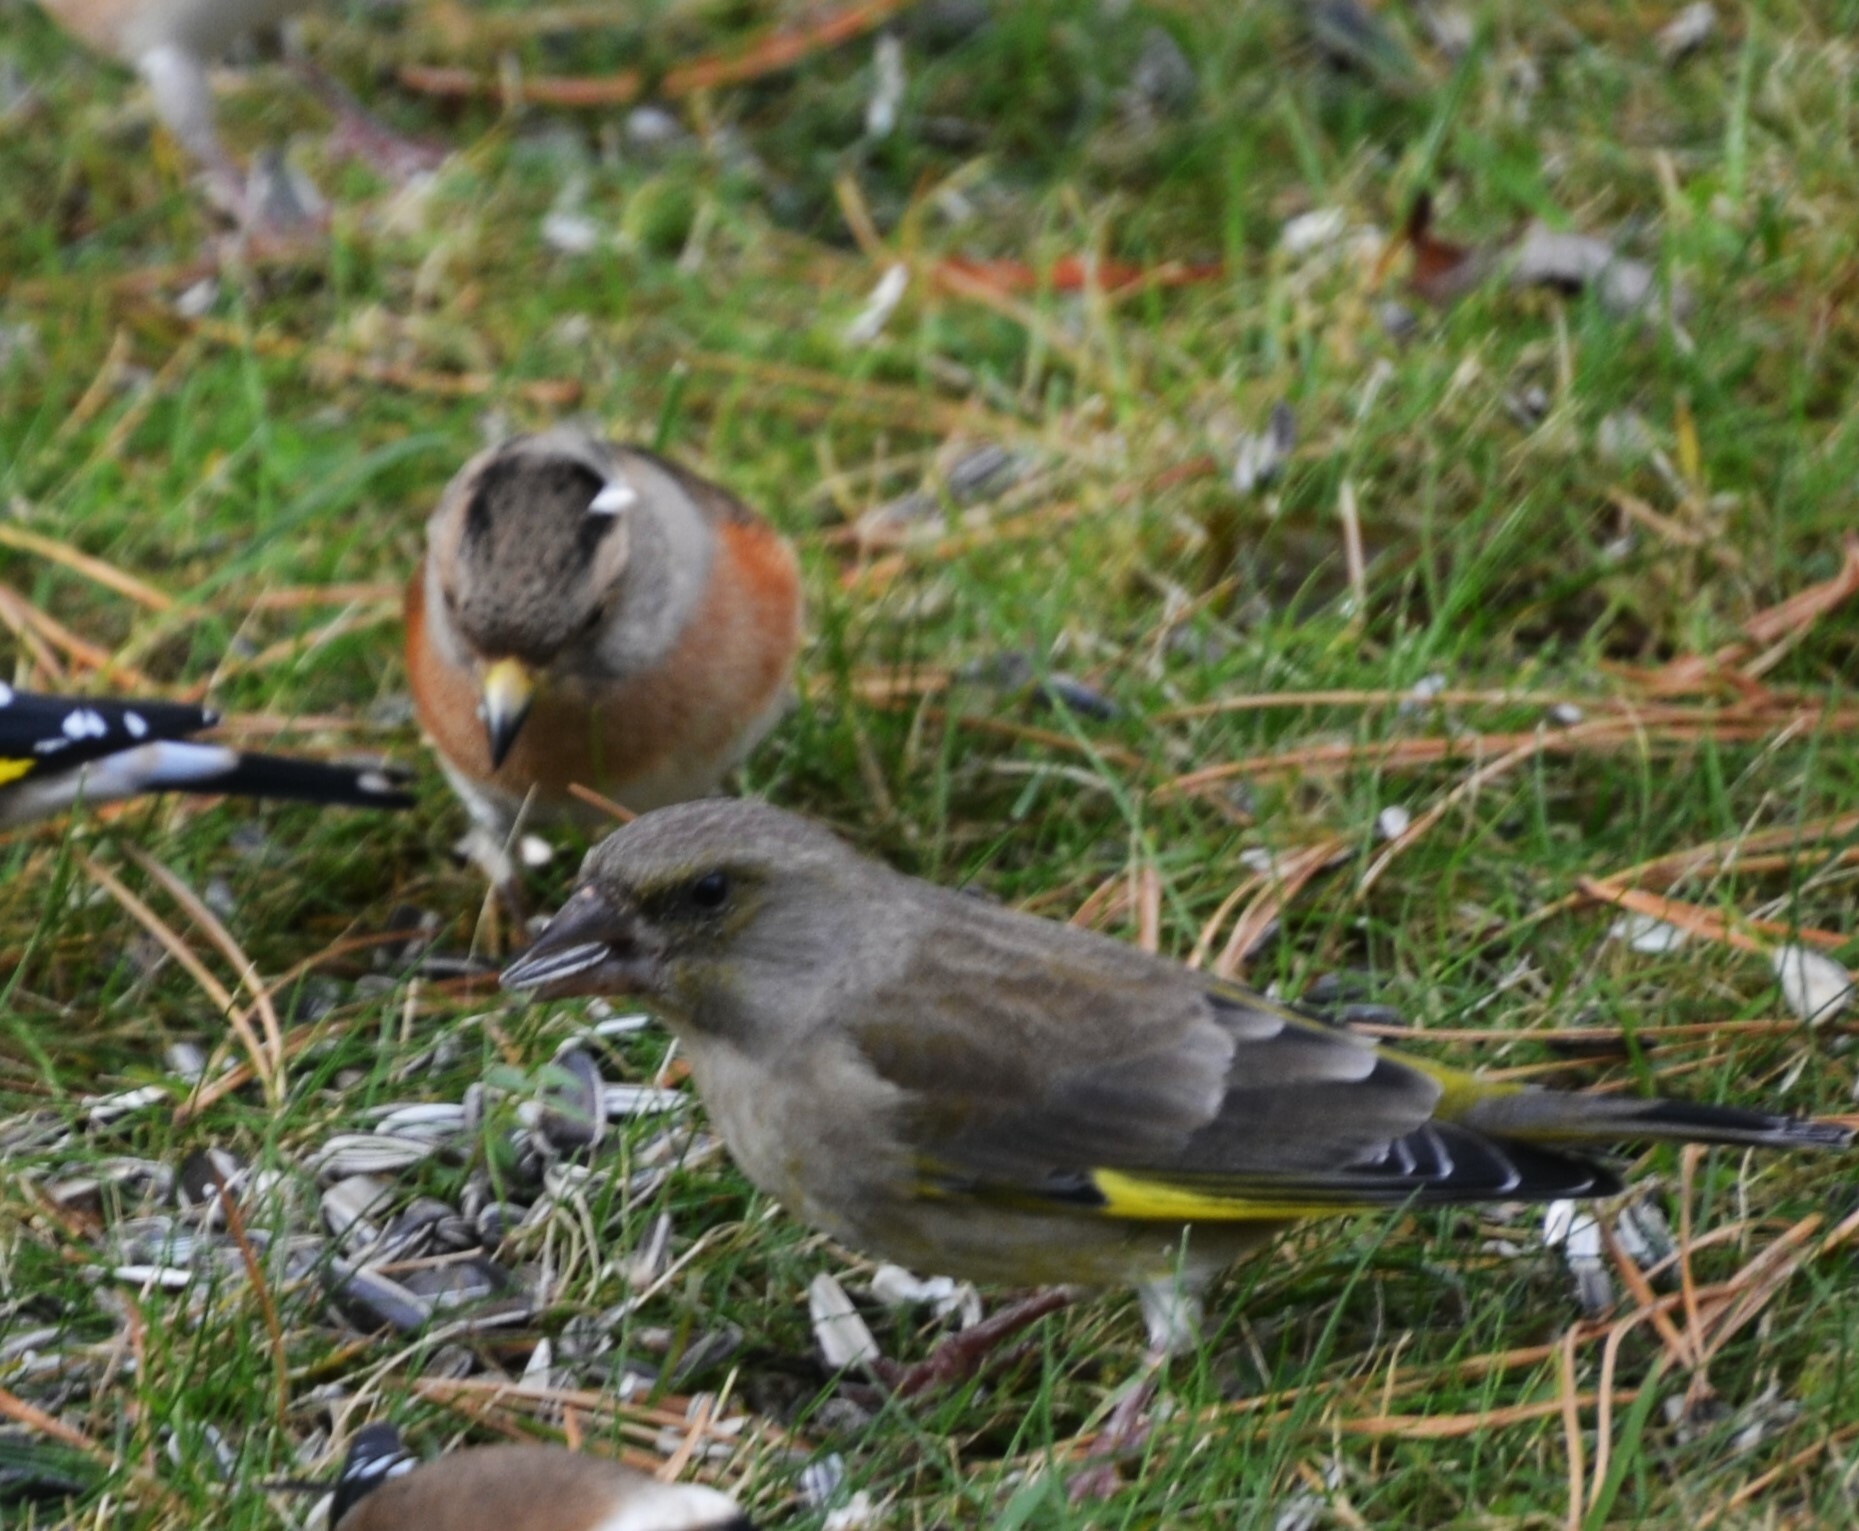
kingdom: Plantae
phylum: Tracheophyta
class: Liliopsida
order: Poales
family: Poaceae
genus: Chloris
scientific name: Chloris chloris
